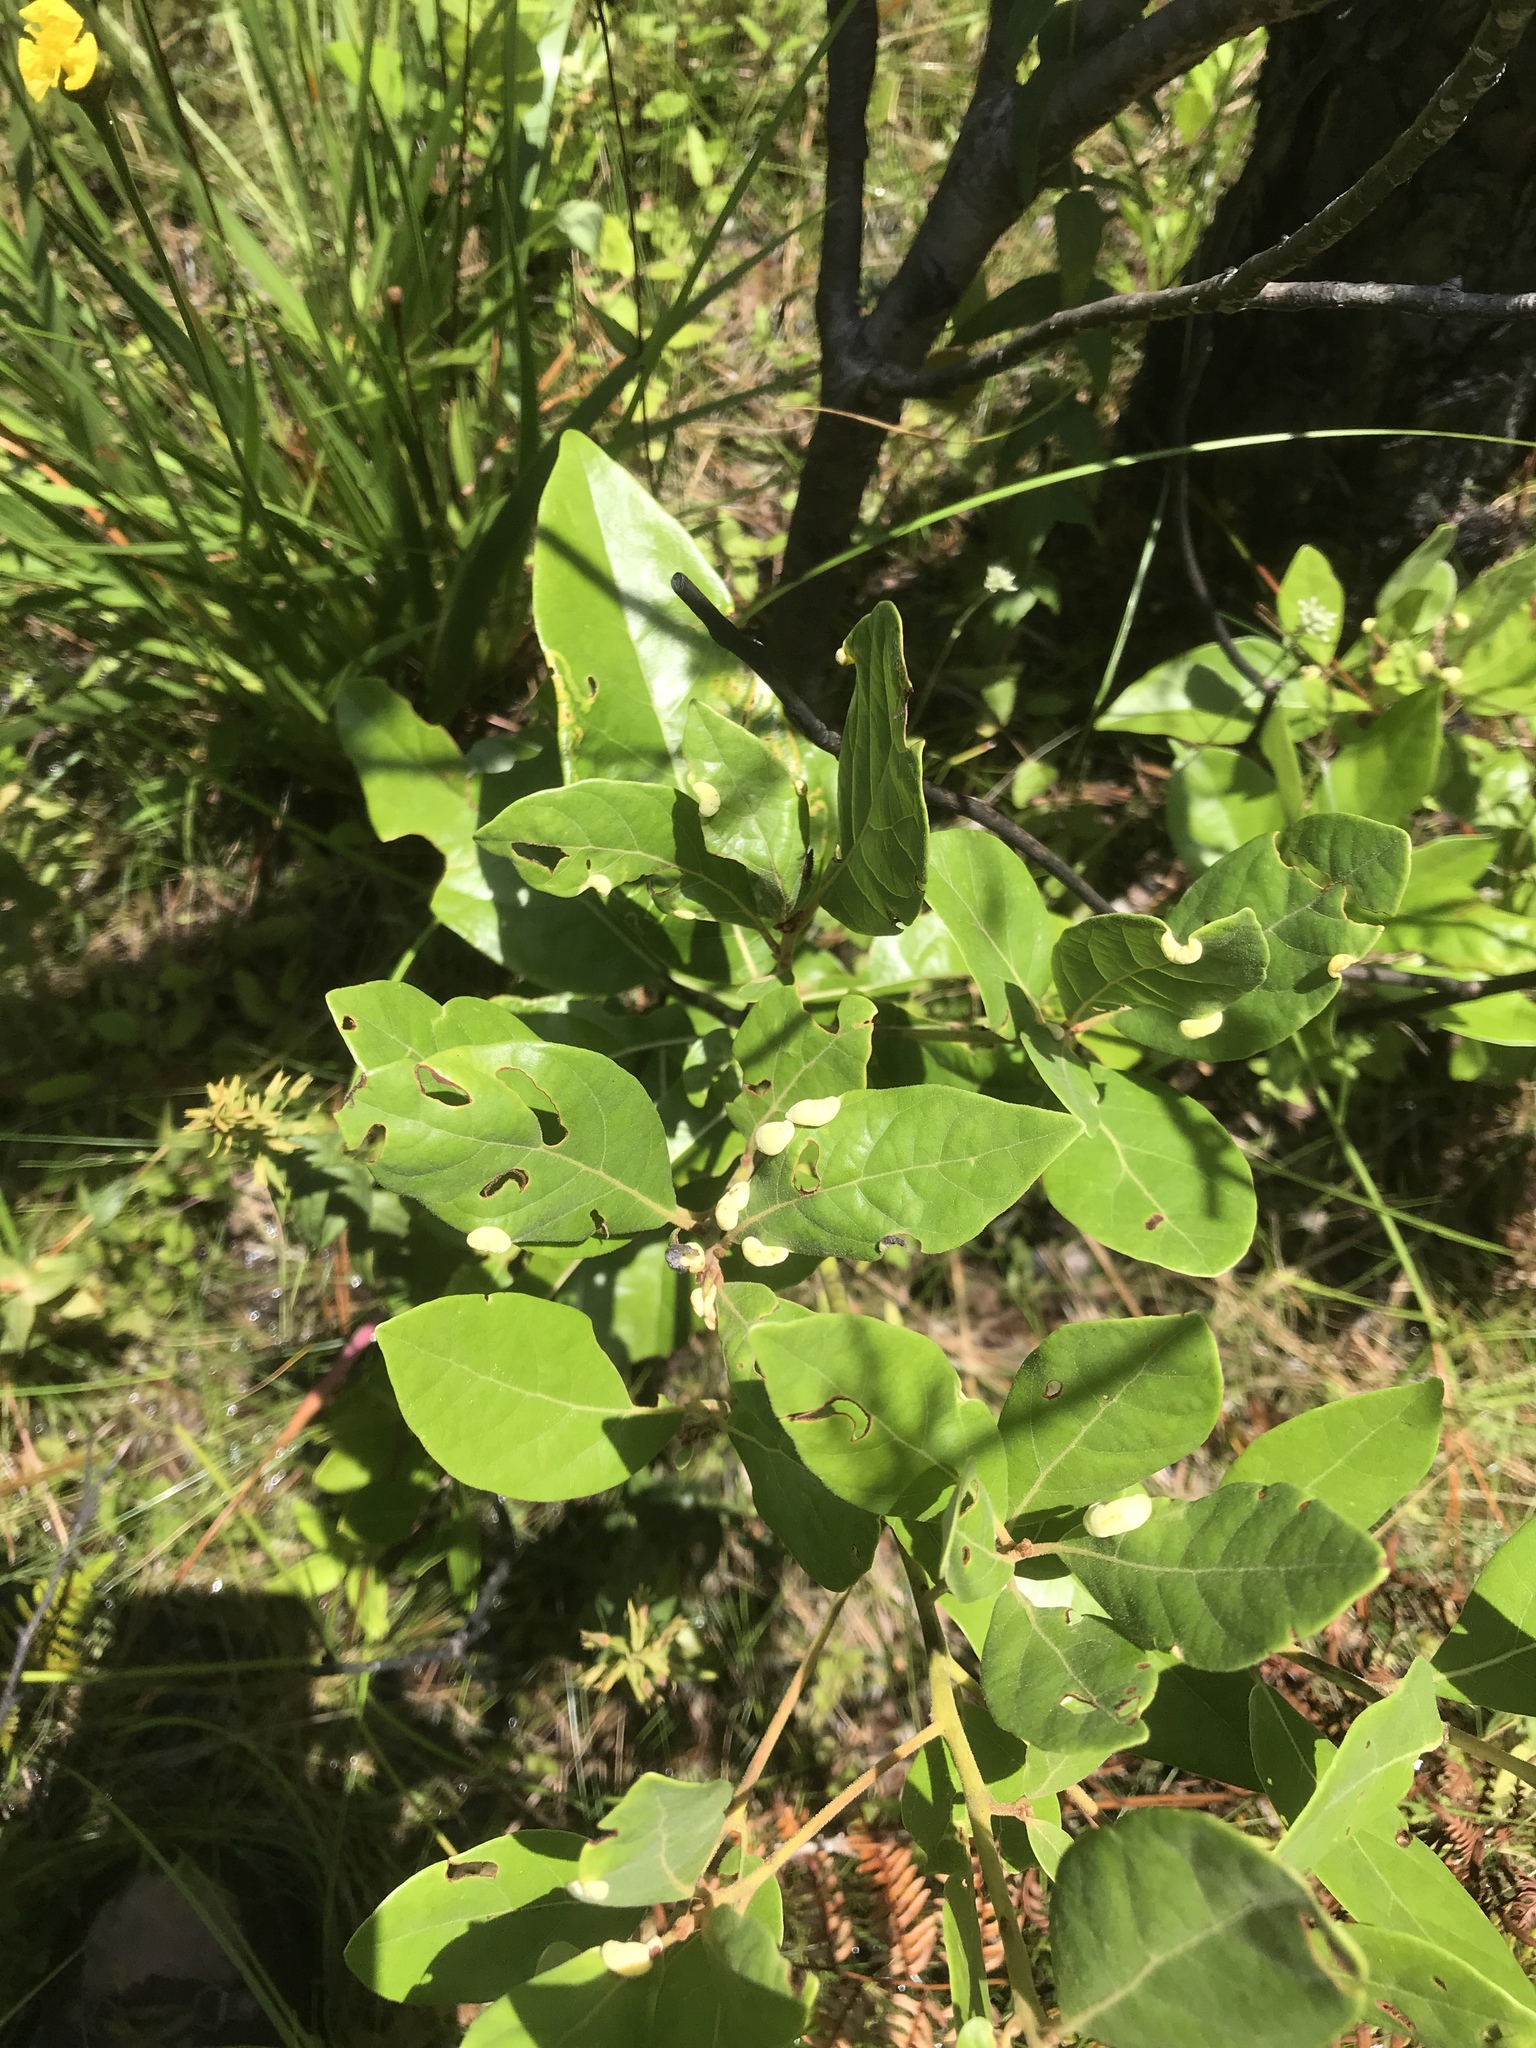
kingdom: Plantae
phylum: Tracheophyta
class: Magnoliopsida
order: Laurales
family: Lauraceae
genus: Persea
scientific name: Persea palustris
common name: Swampbay
